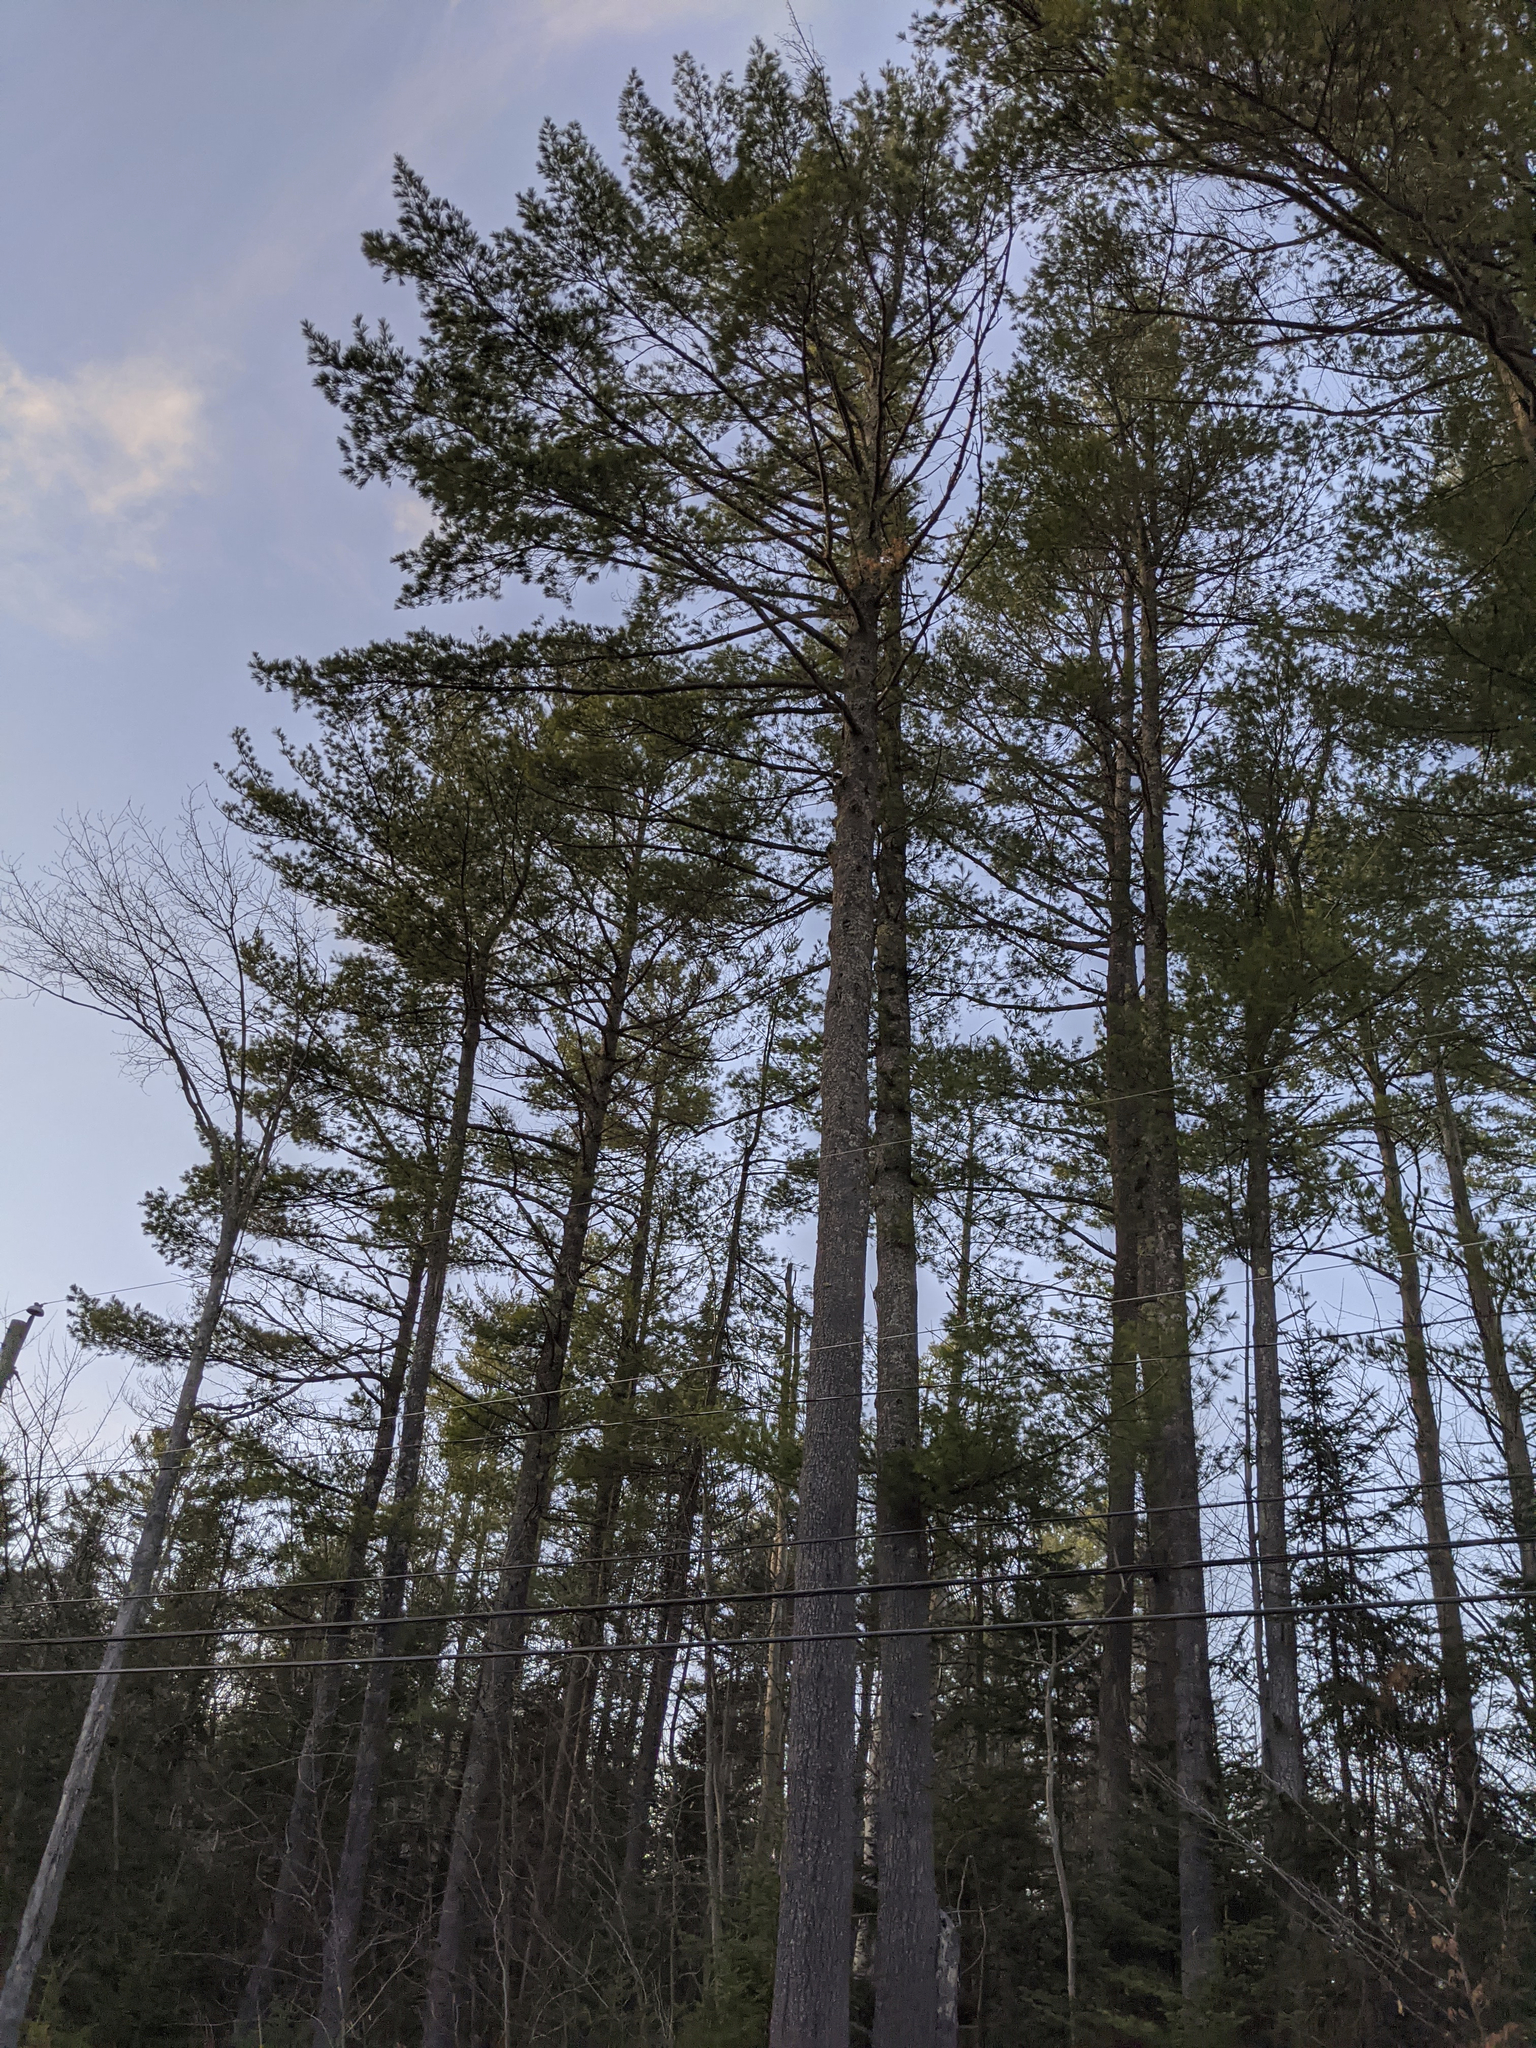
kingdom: Plantae
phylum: Tracheophyta
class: Pinopsida
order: Pinales
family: Pinaceae
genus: Pinus
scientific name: Pinus strobus
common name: Weymouth pine
